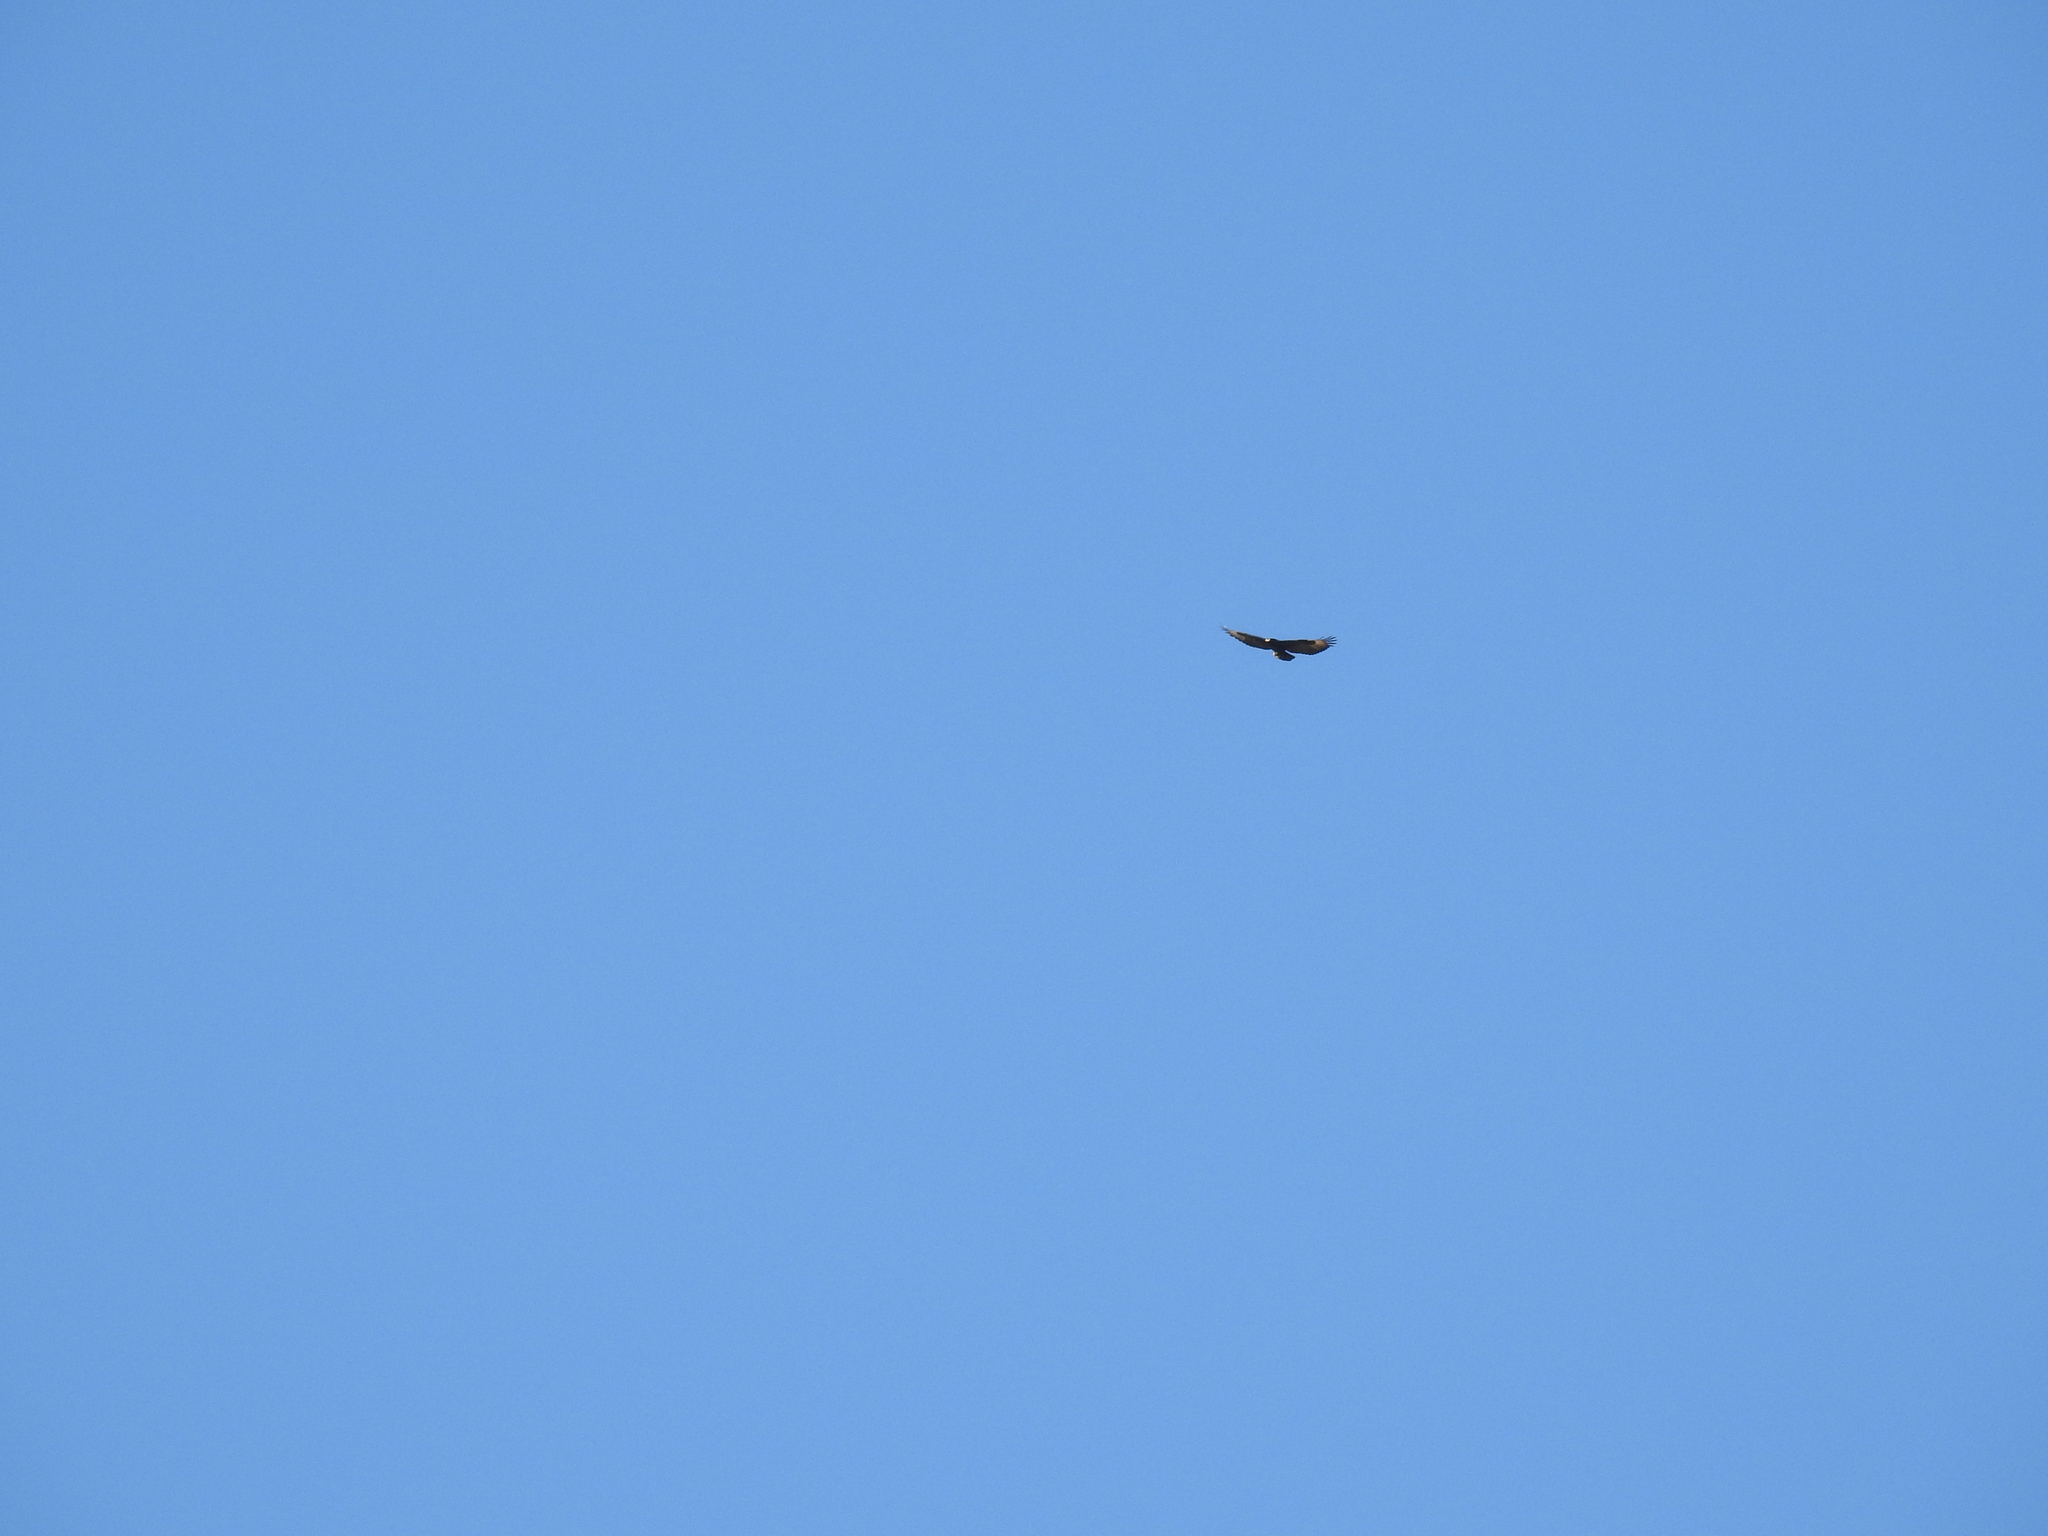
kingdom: Animalia
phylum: Chordata
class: Aves
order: Accipitriformes
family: Accipitridae
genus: Aquila
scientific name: Aquila verreauxii
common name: Verreaux's eagle
